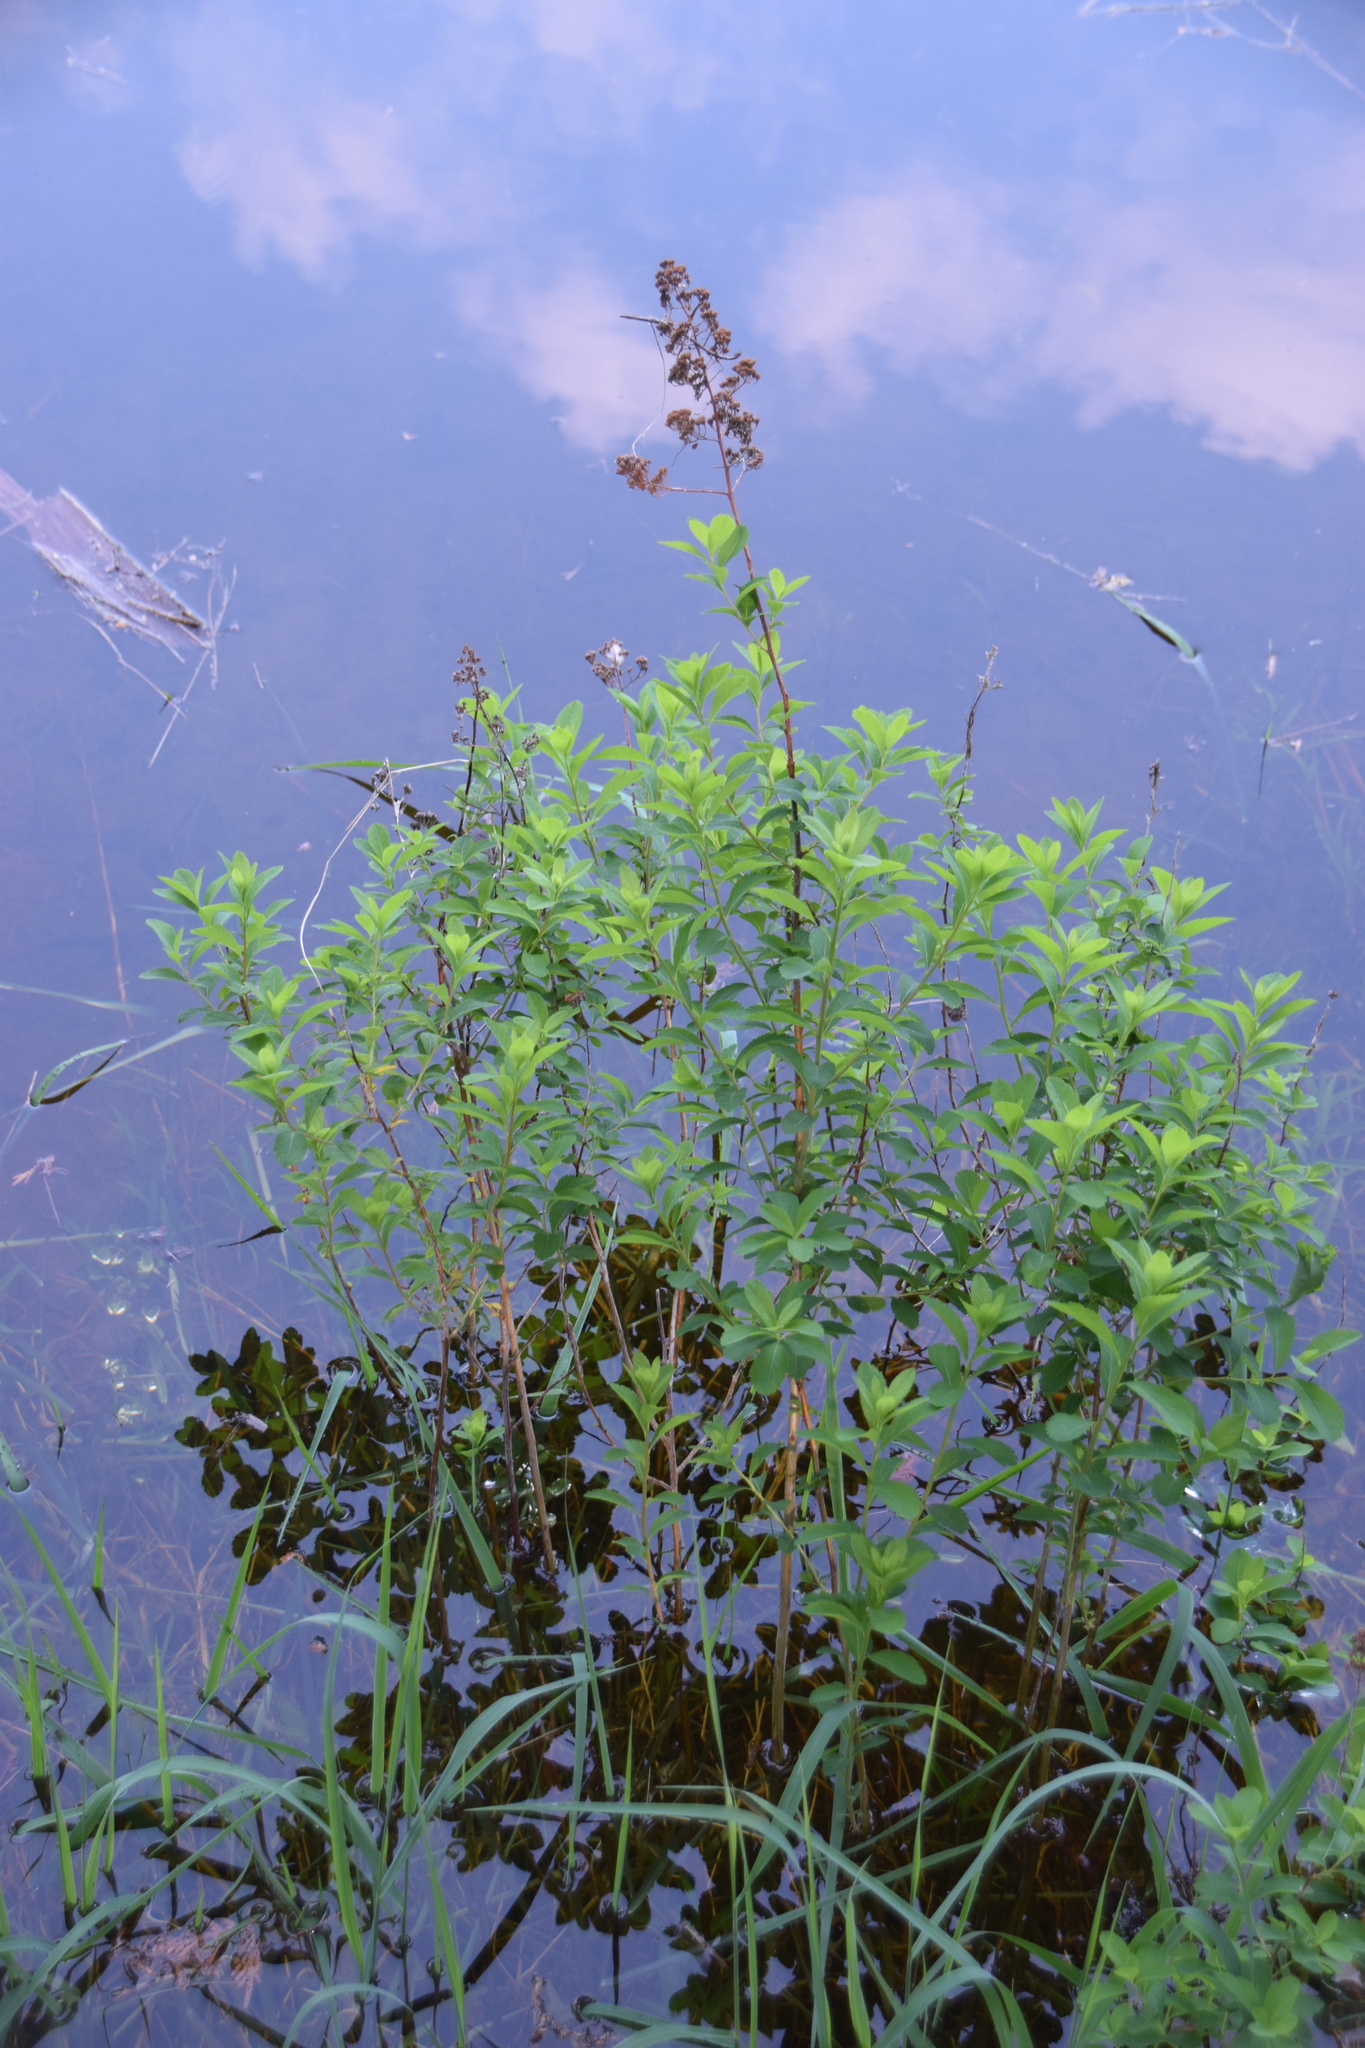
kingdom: Plantae
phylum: Tracheophyta
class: Magnoliopsida
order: Rosales
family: Rosaceae
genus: Spiraea
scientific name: Spiraea alba
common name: Pale bridewort
